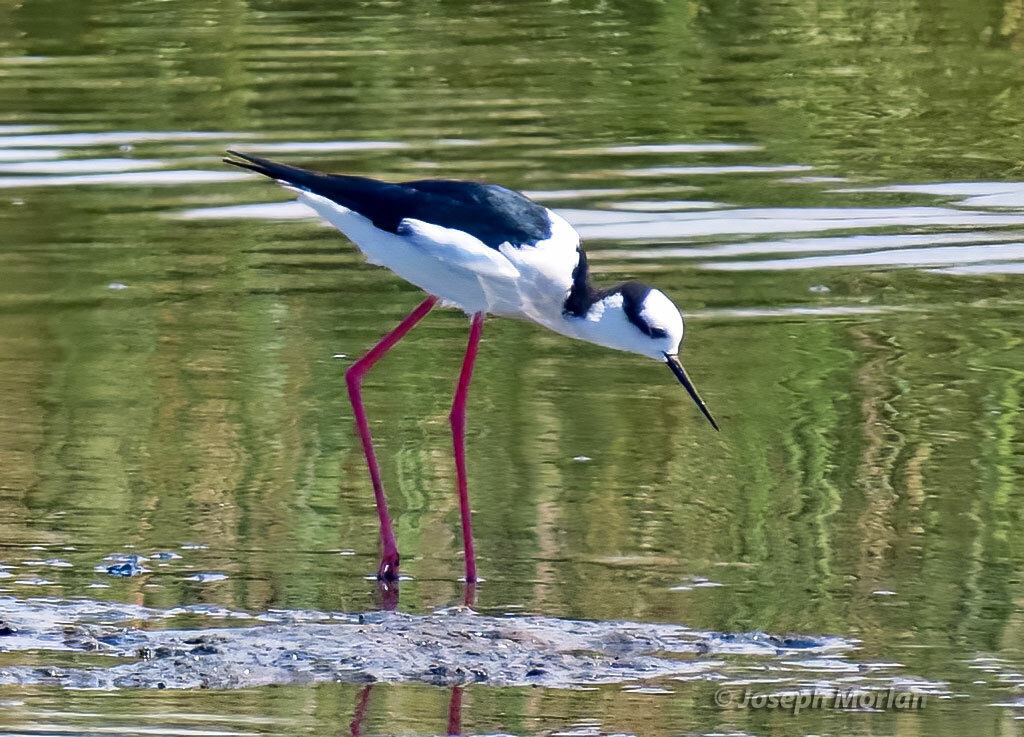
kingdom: Animalia
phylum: Chordata
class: Aves
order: Charadriiformes
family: Recurvirostridae
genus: Himantopus
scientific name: Himantopus mexicanus
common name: Black-necked stilt
